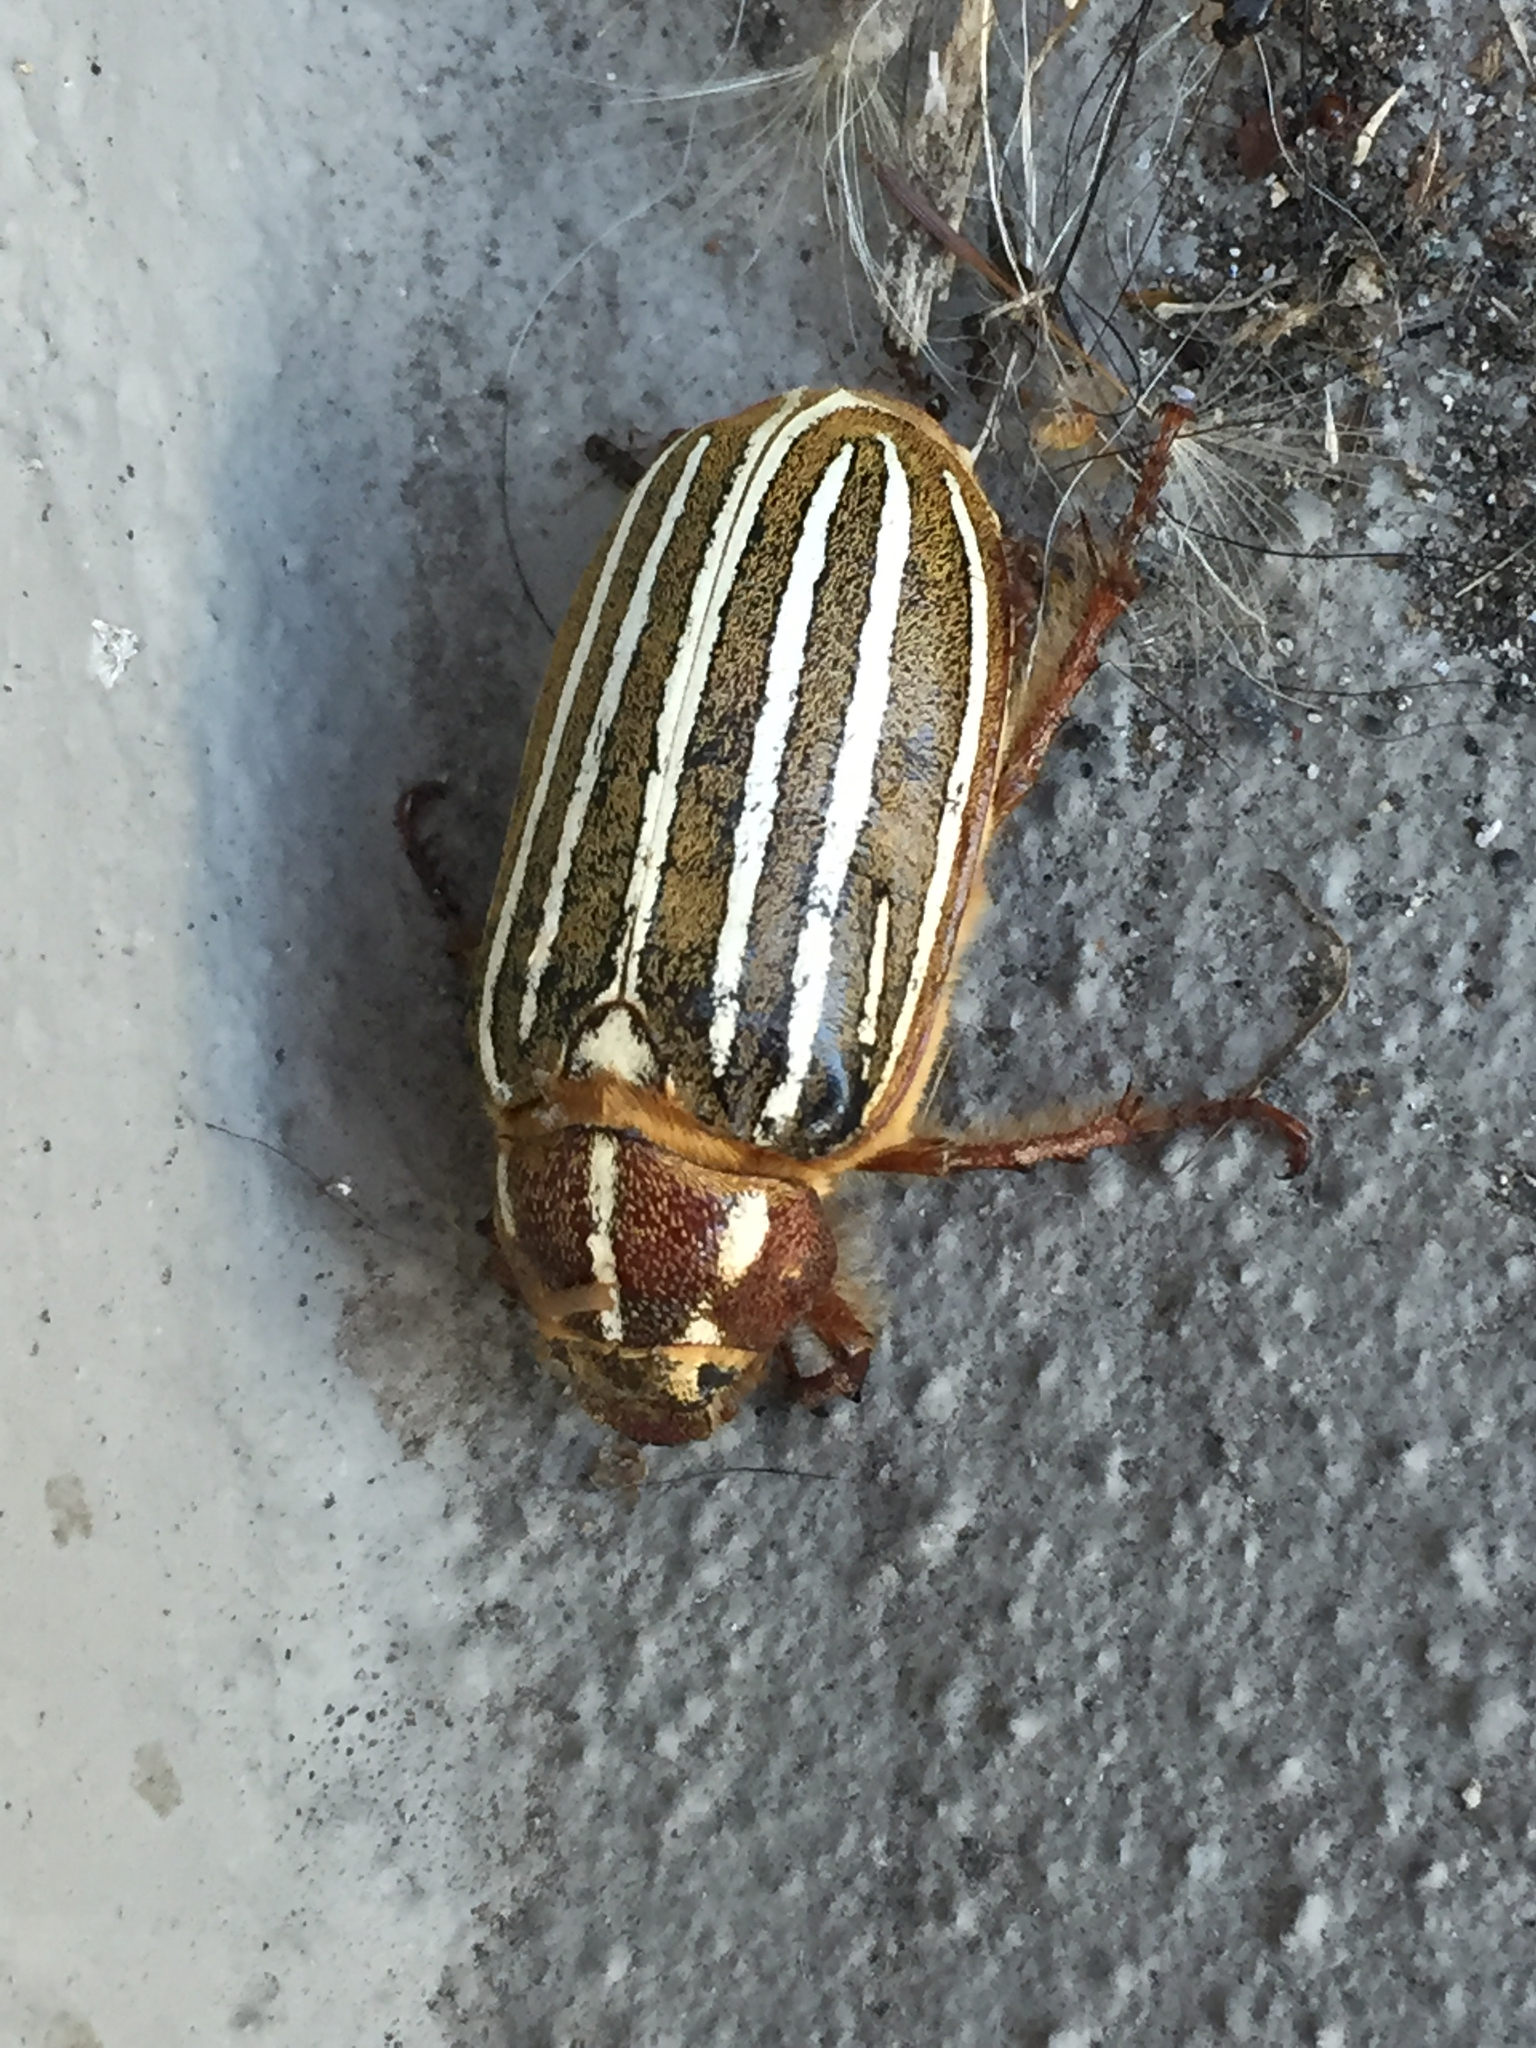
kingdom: Animalia
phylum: Arthropoda
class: Insecta
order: Coleoptera
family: Scarabaeidae
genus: Polyphylla
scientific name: Polyphylla crinita
